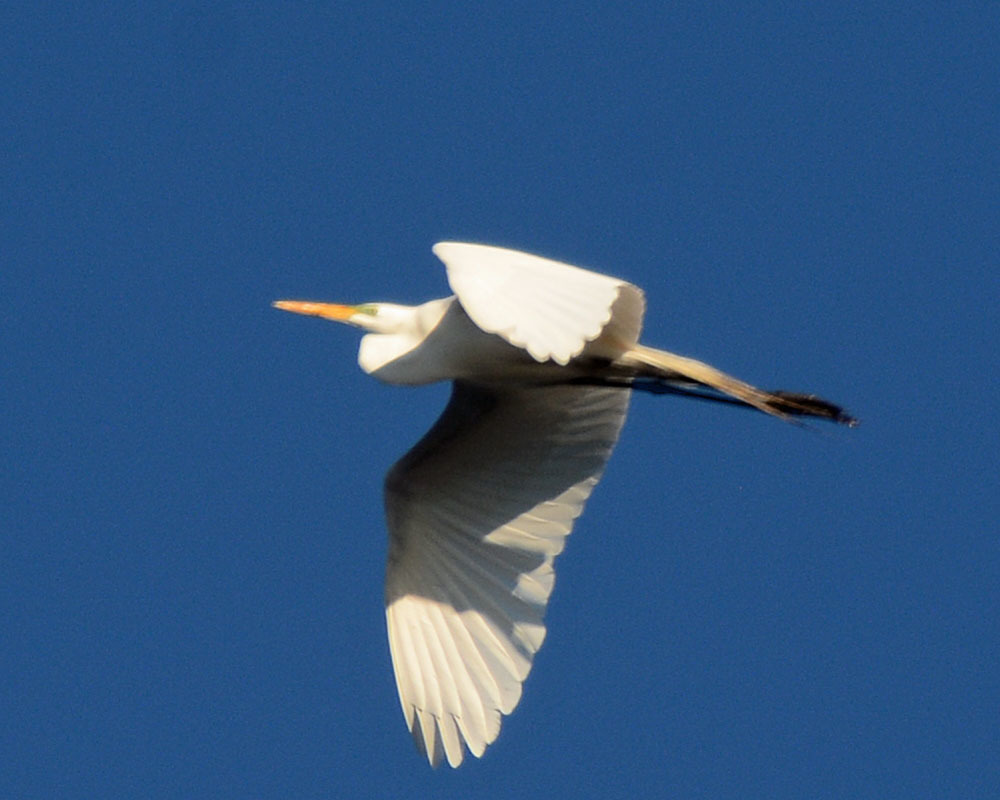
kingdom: Animalia
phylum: Chordata
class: Aves
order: Pelecaniformes
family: Ardeidae
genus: Ardea
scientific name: Ardea alba
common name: Great egret
